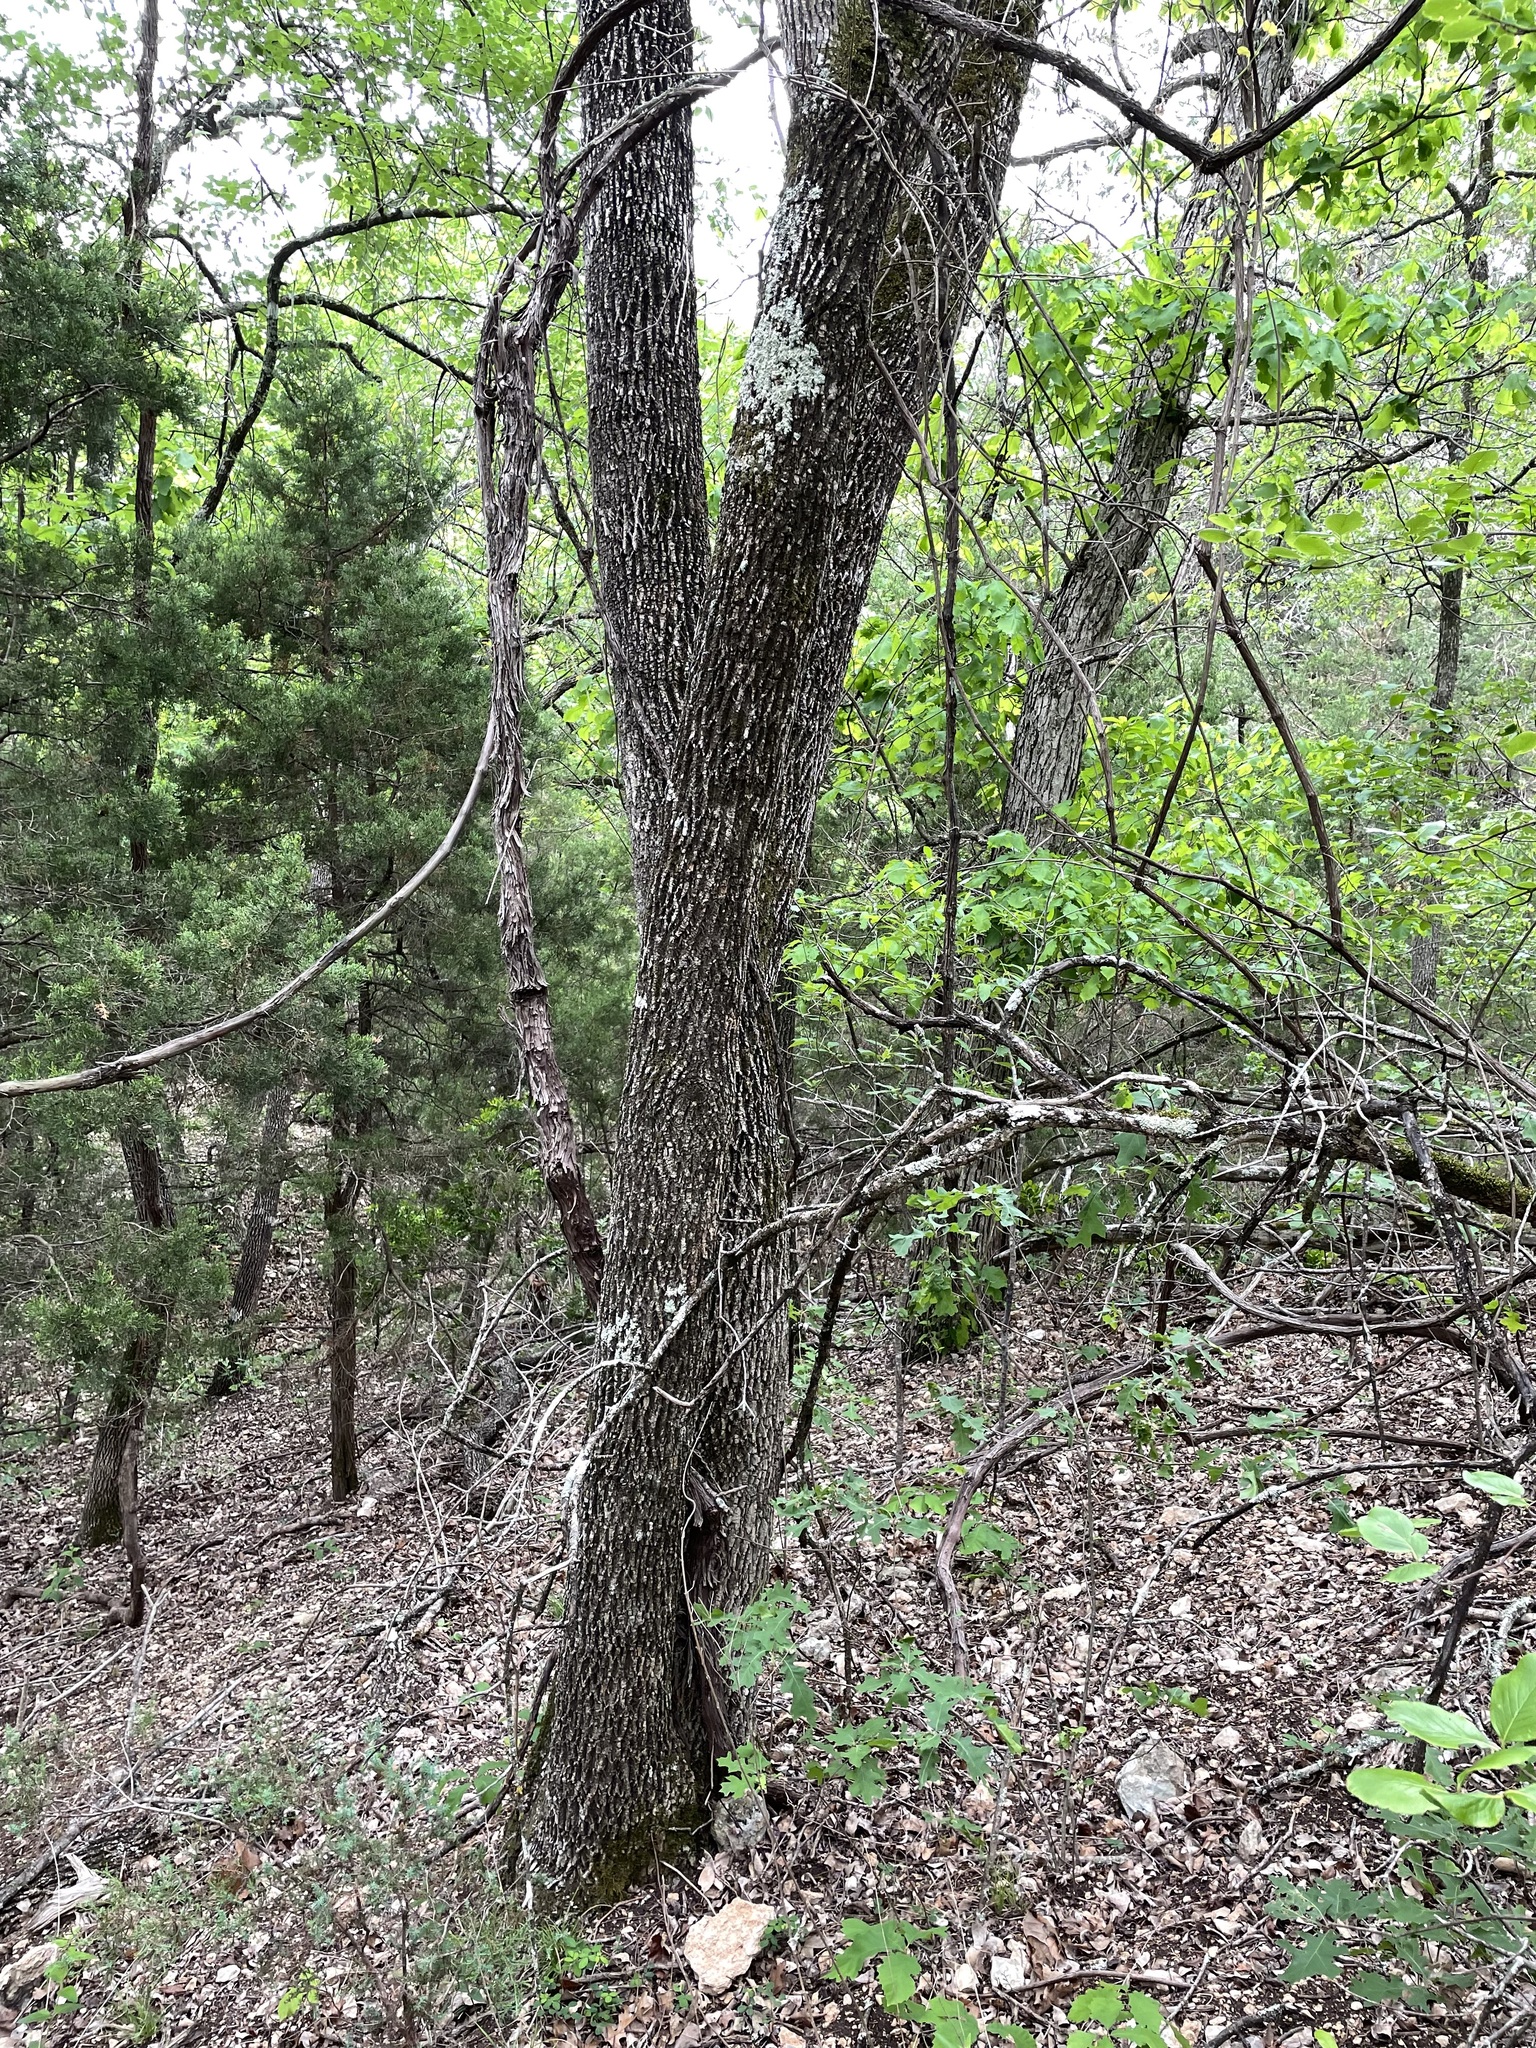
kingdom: Plantae
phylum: Tracheophyta
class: Magnoliopsida
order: Lamiales
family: Oleaceae
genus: Fraxinus
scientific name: Fraxinus albicans
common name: Texas ash
